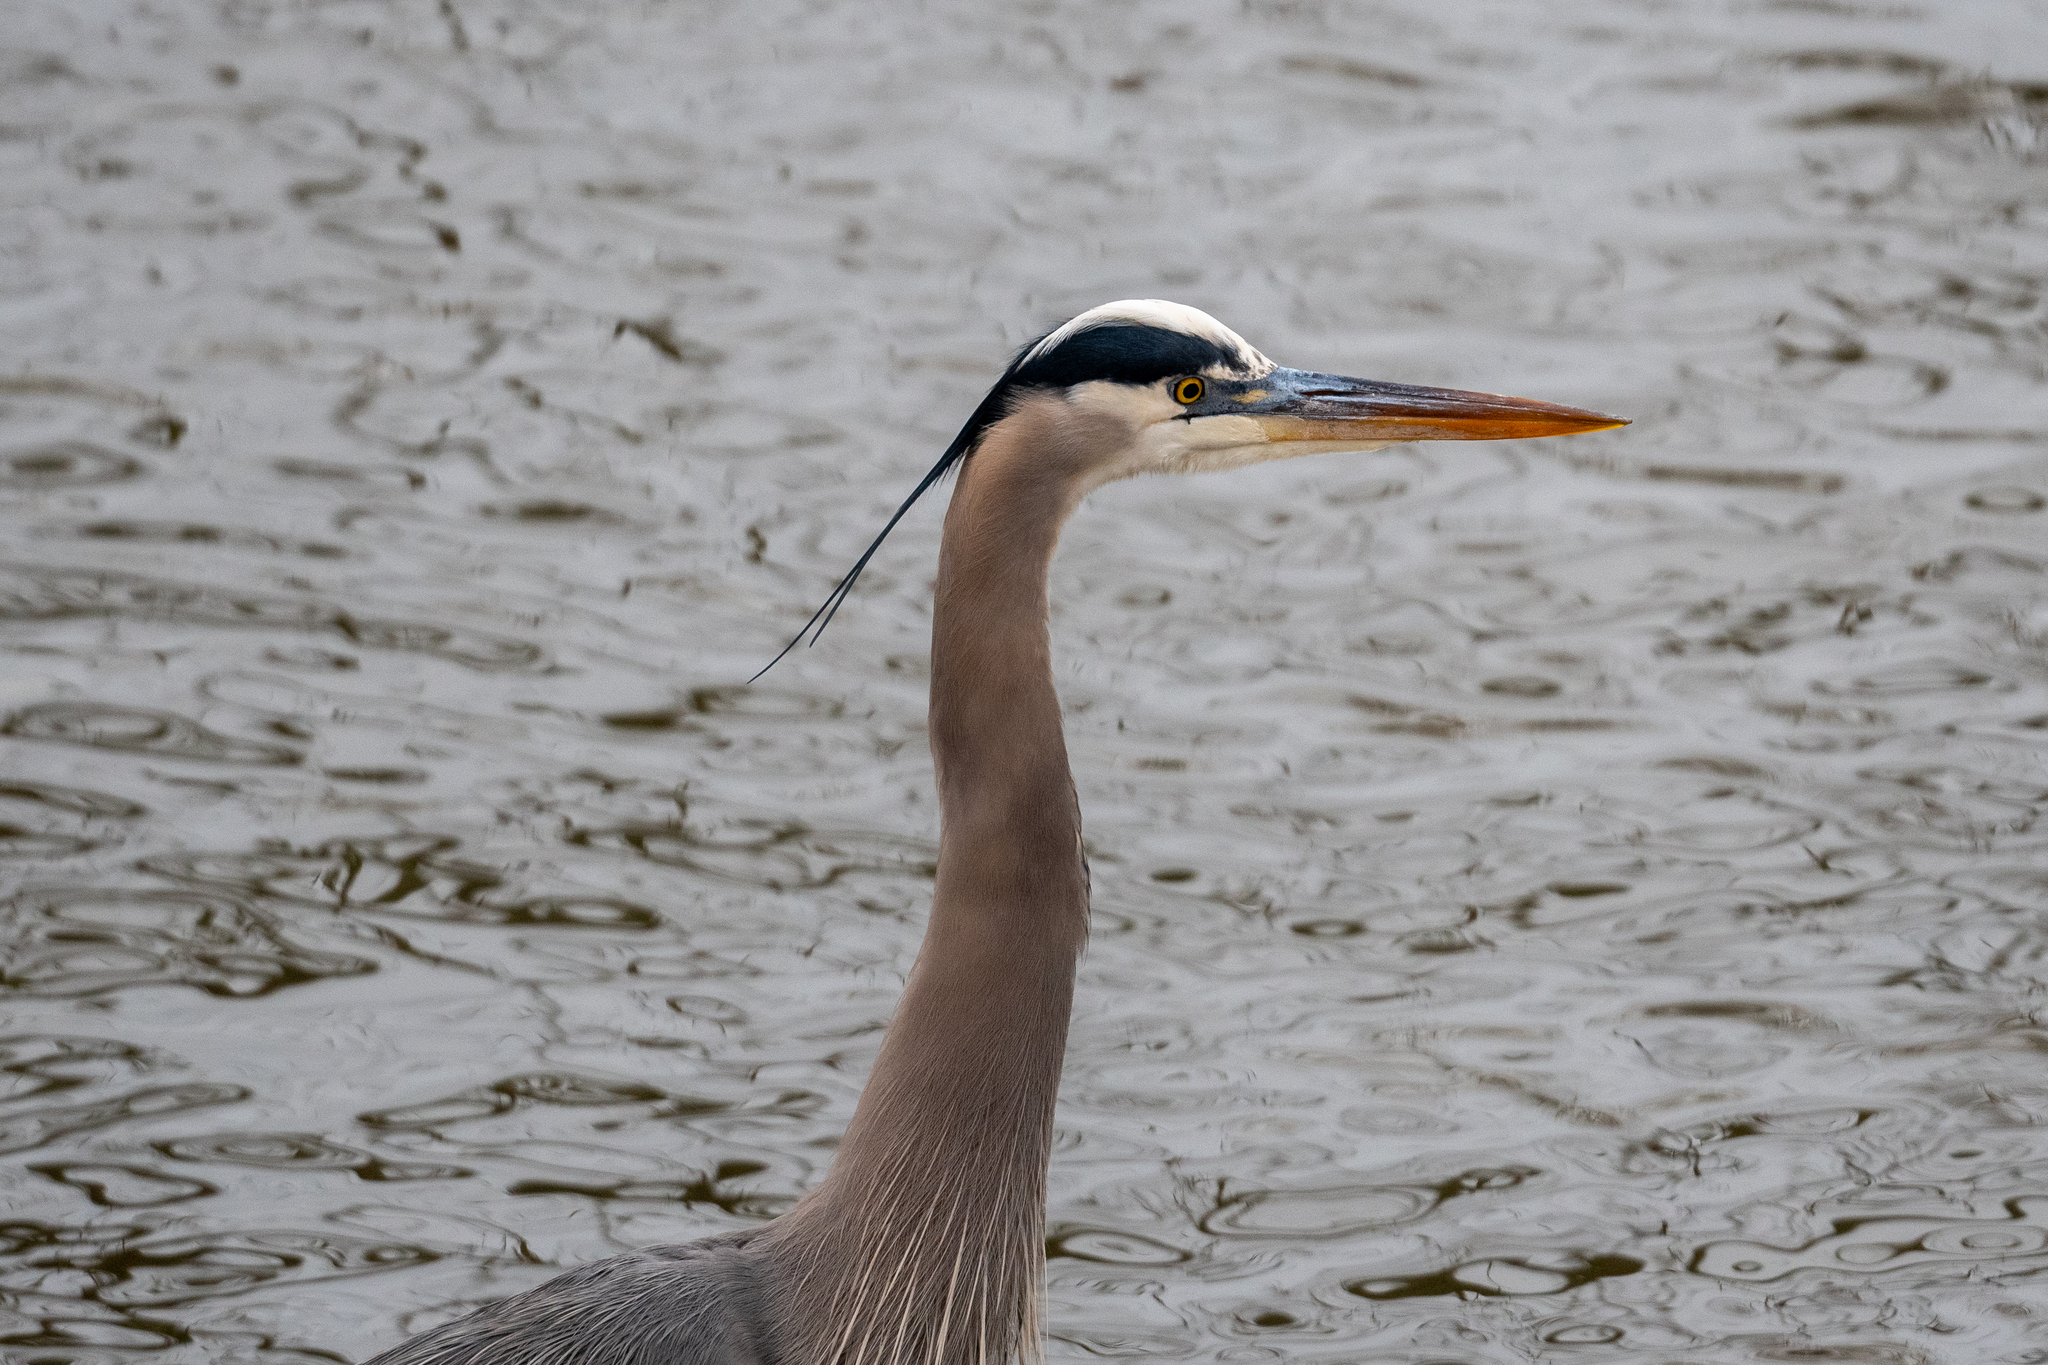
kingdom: Animalia
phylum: Chordata
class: Aves
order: Pelecaniformes
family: Ardeidae
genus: Ardea
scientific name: Ardea herodias
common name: Great blue heron
